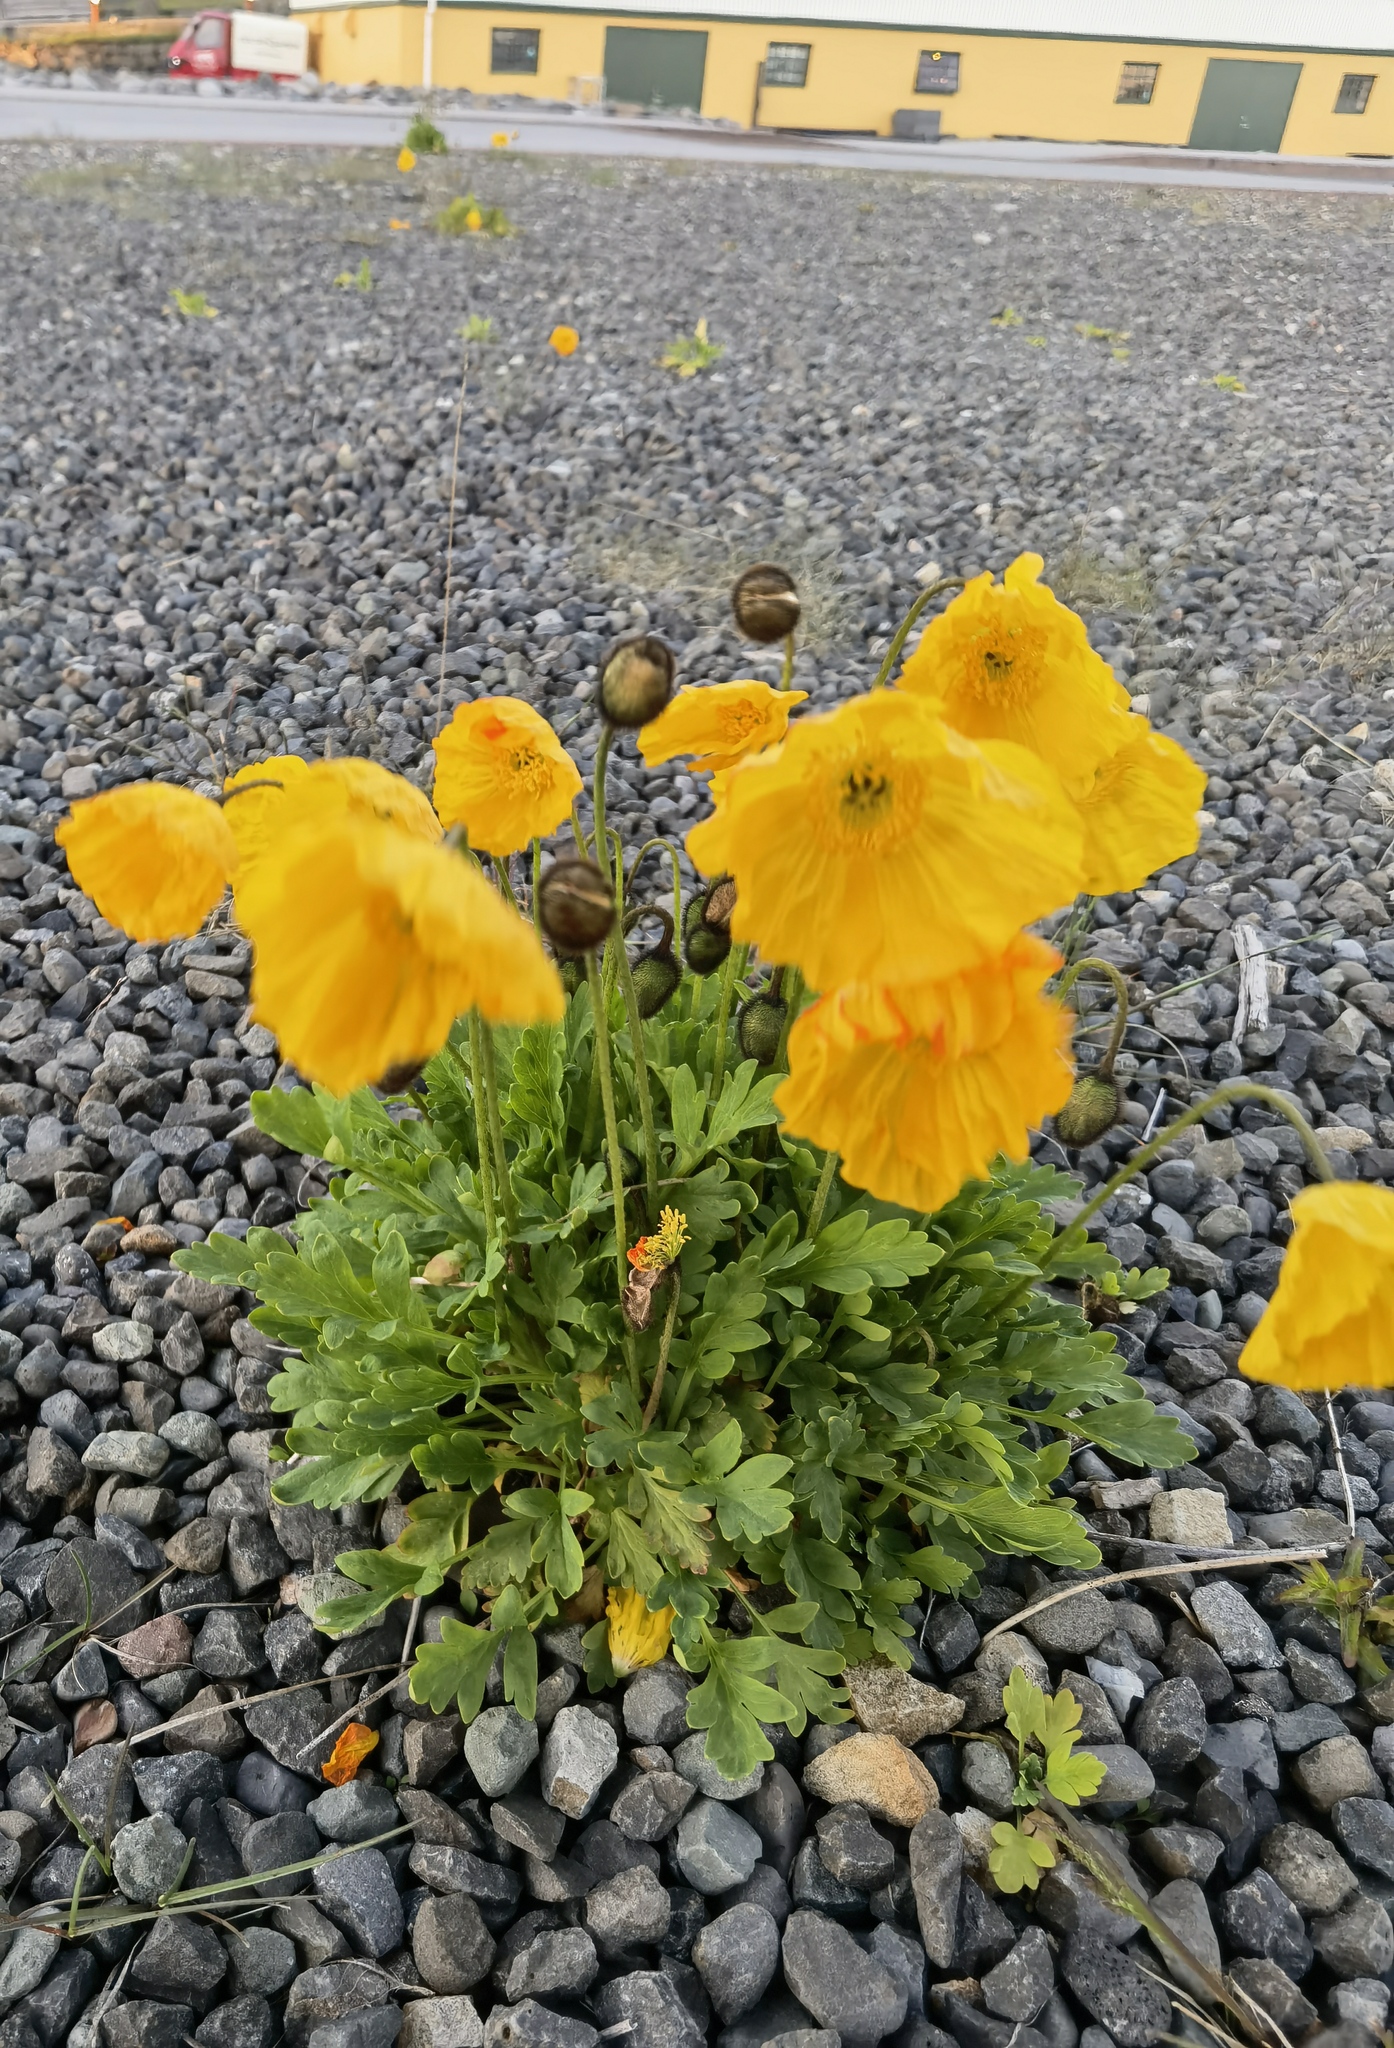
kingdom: Plantae
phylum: Tracheophyta
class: Magnoliopsida
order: Ranunculales
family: Papaveraceae
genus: Papaver
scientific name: Papaver nudicaule
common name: Arctic poppy
